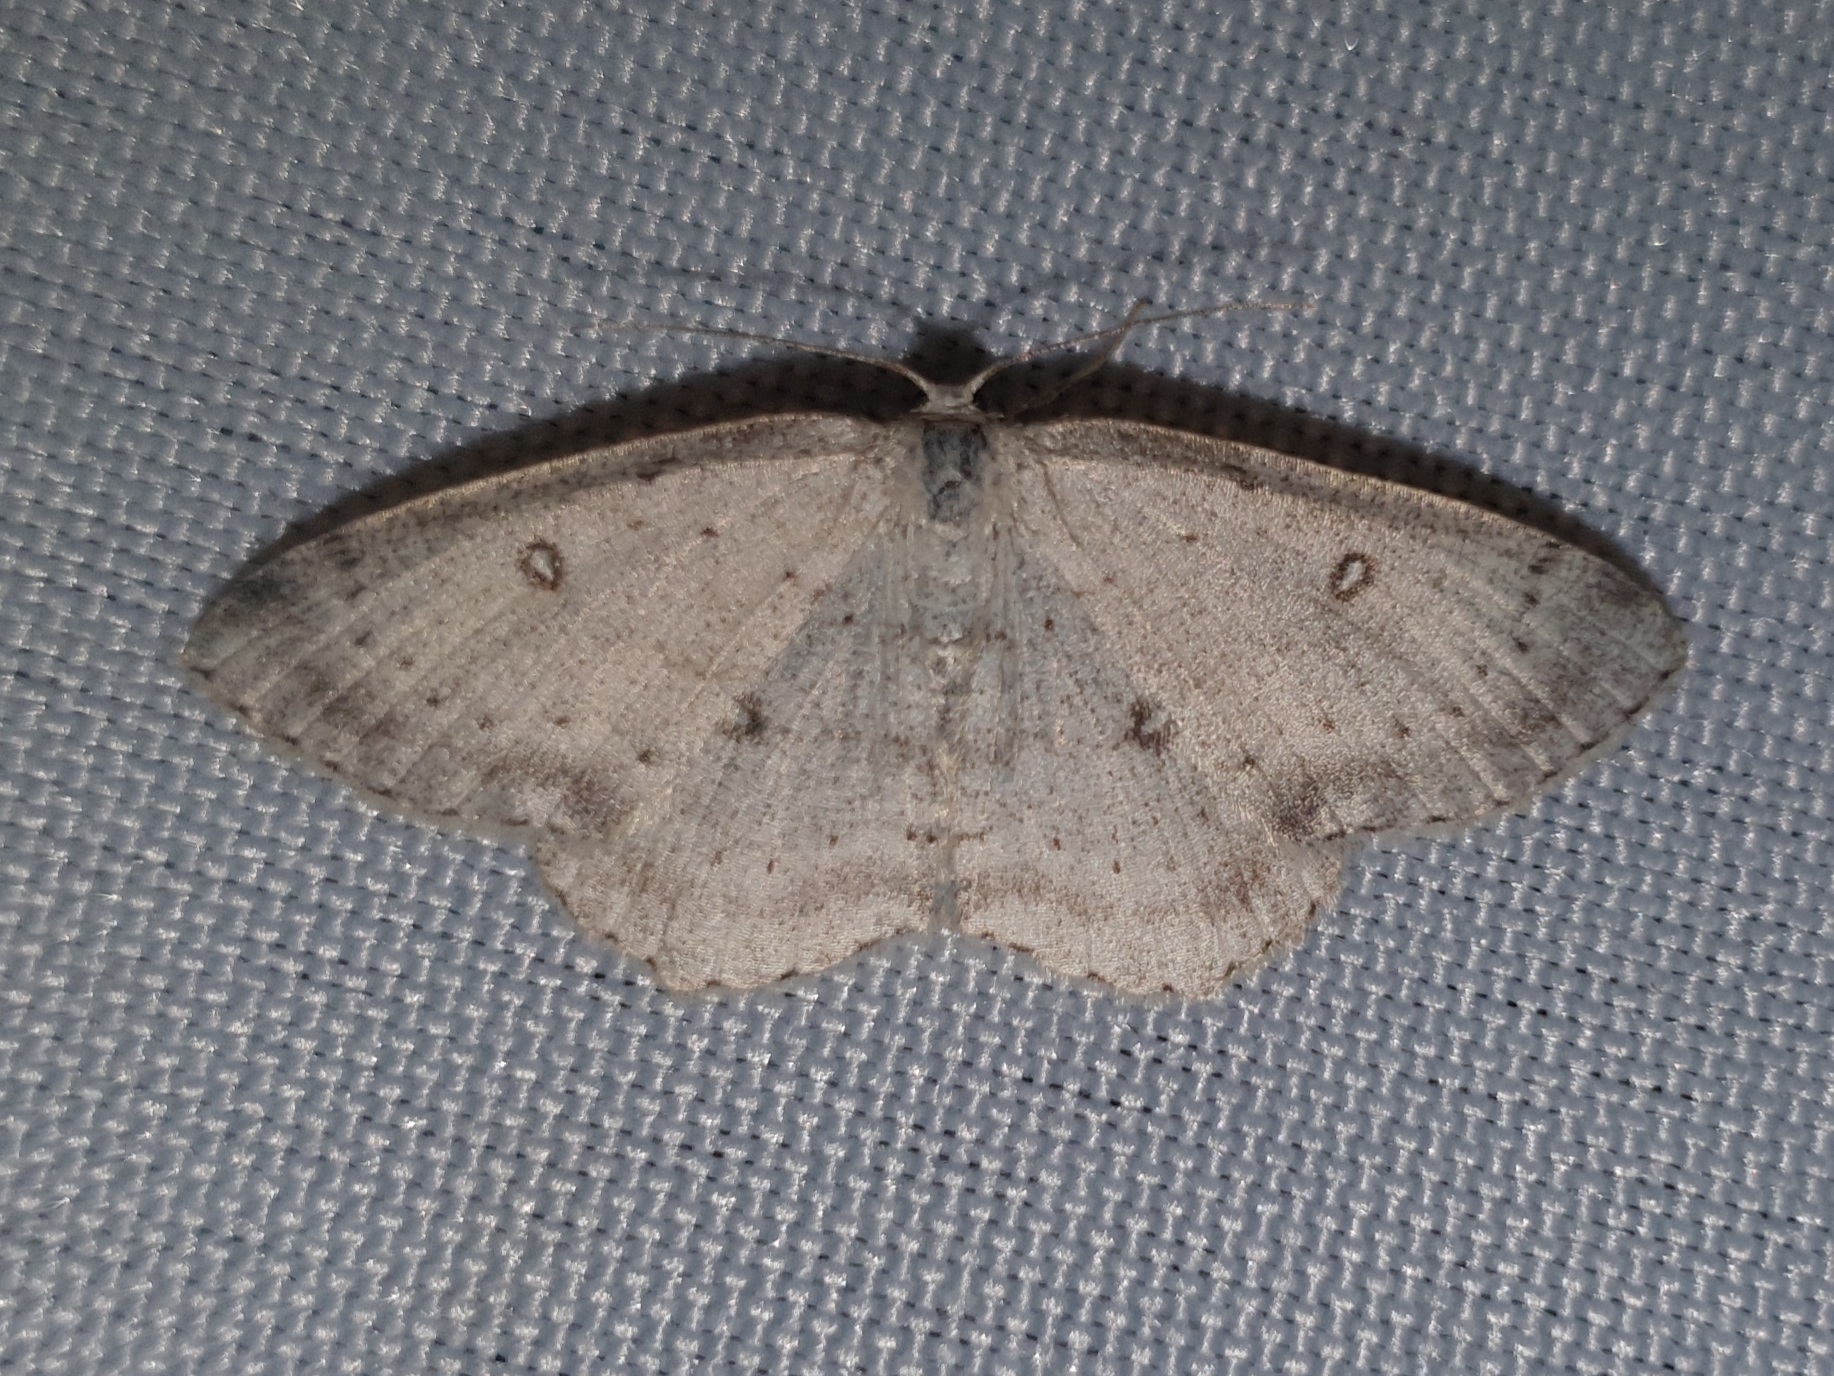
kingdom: Animalia
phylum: Arthropoda
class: Insecta
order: Lepidoptera
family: Geometridae
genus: Cyclophora
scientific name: Cyclophora albipunctata
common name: Birch mocha
